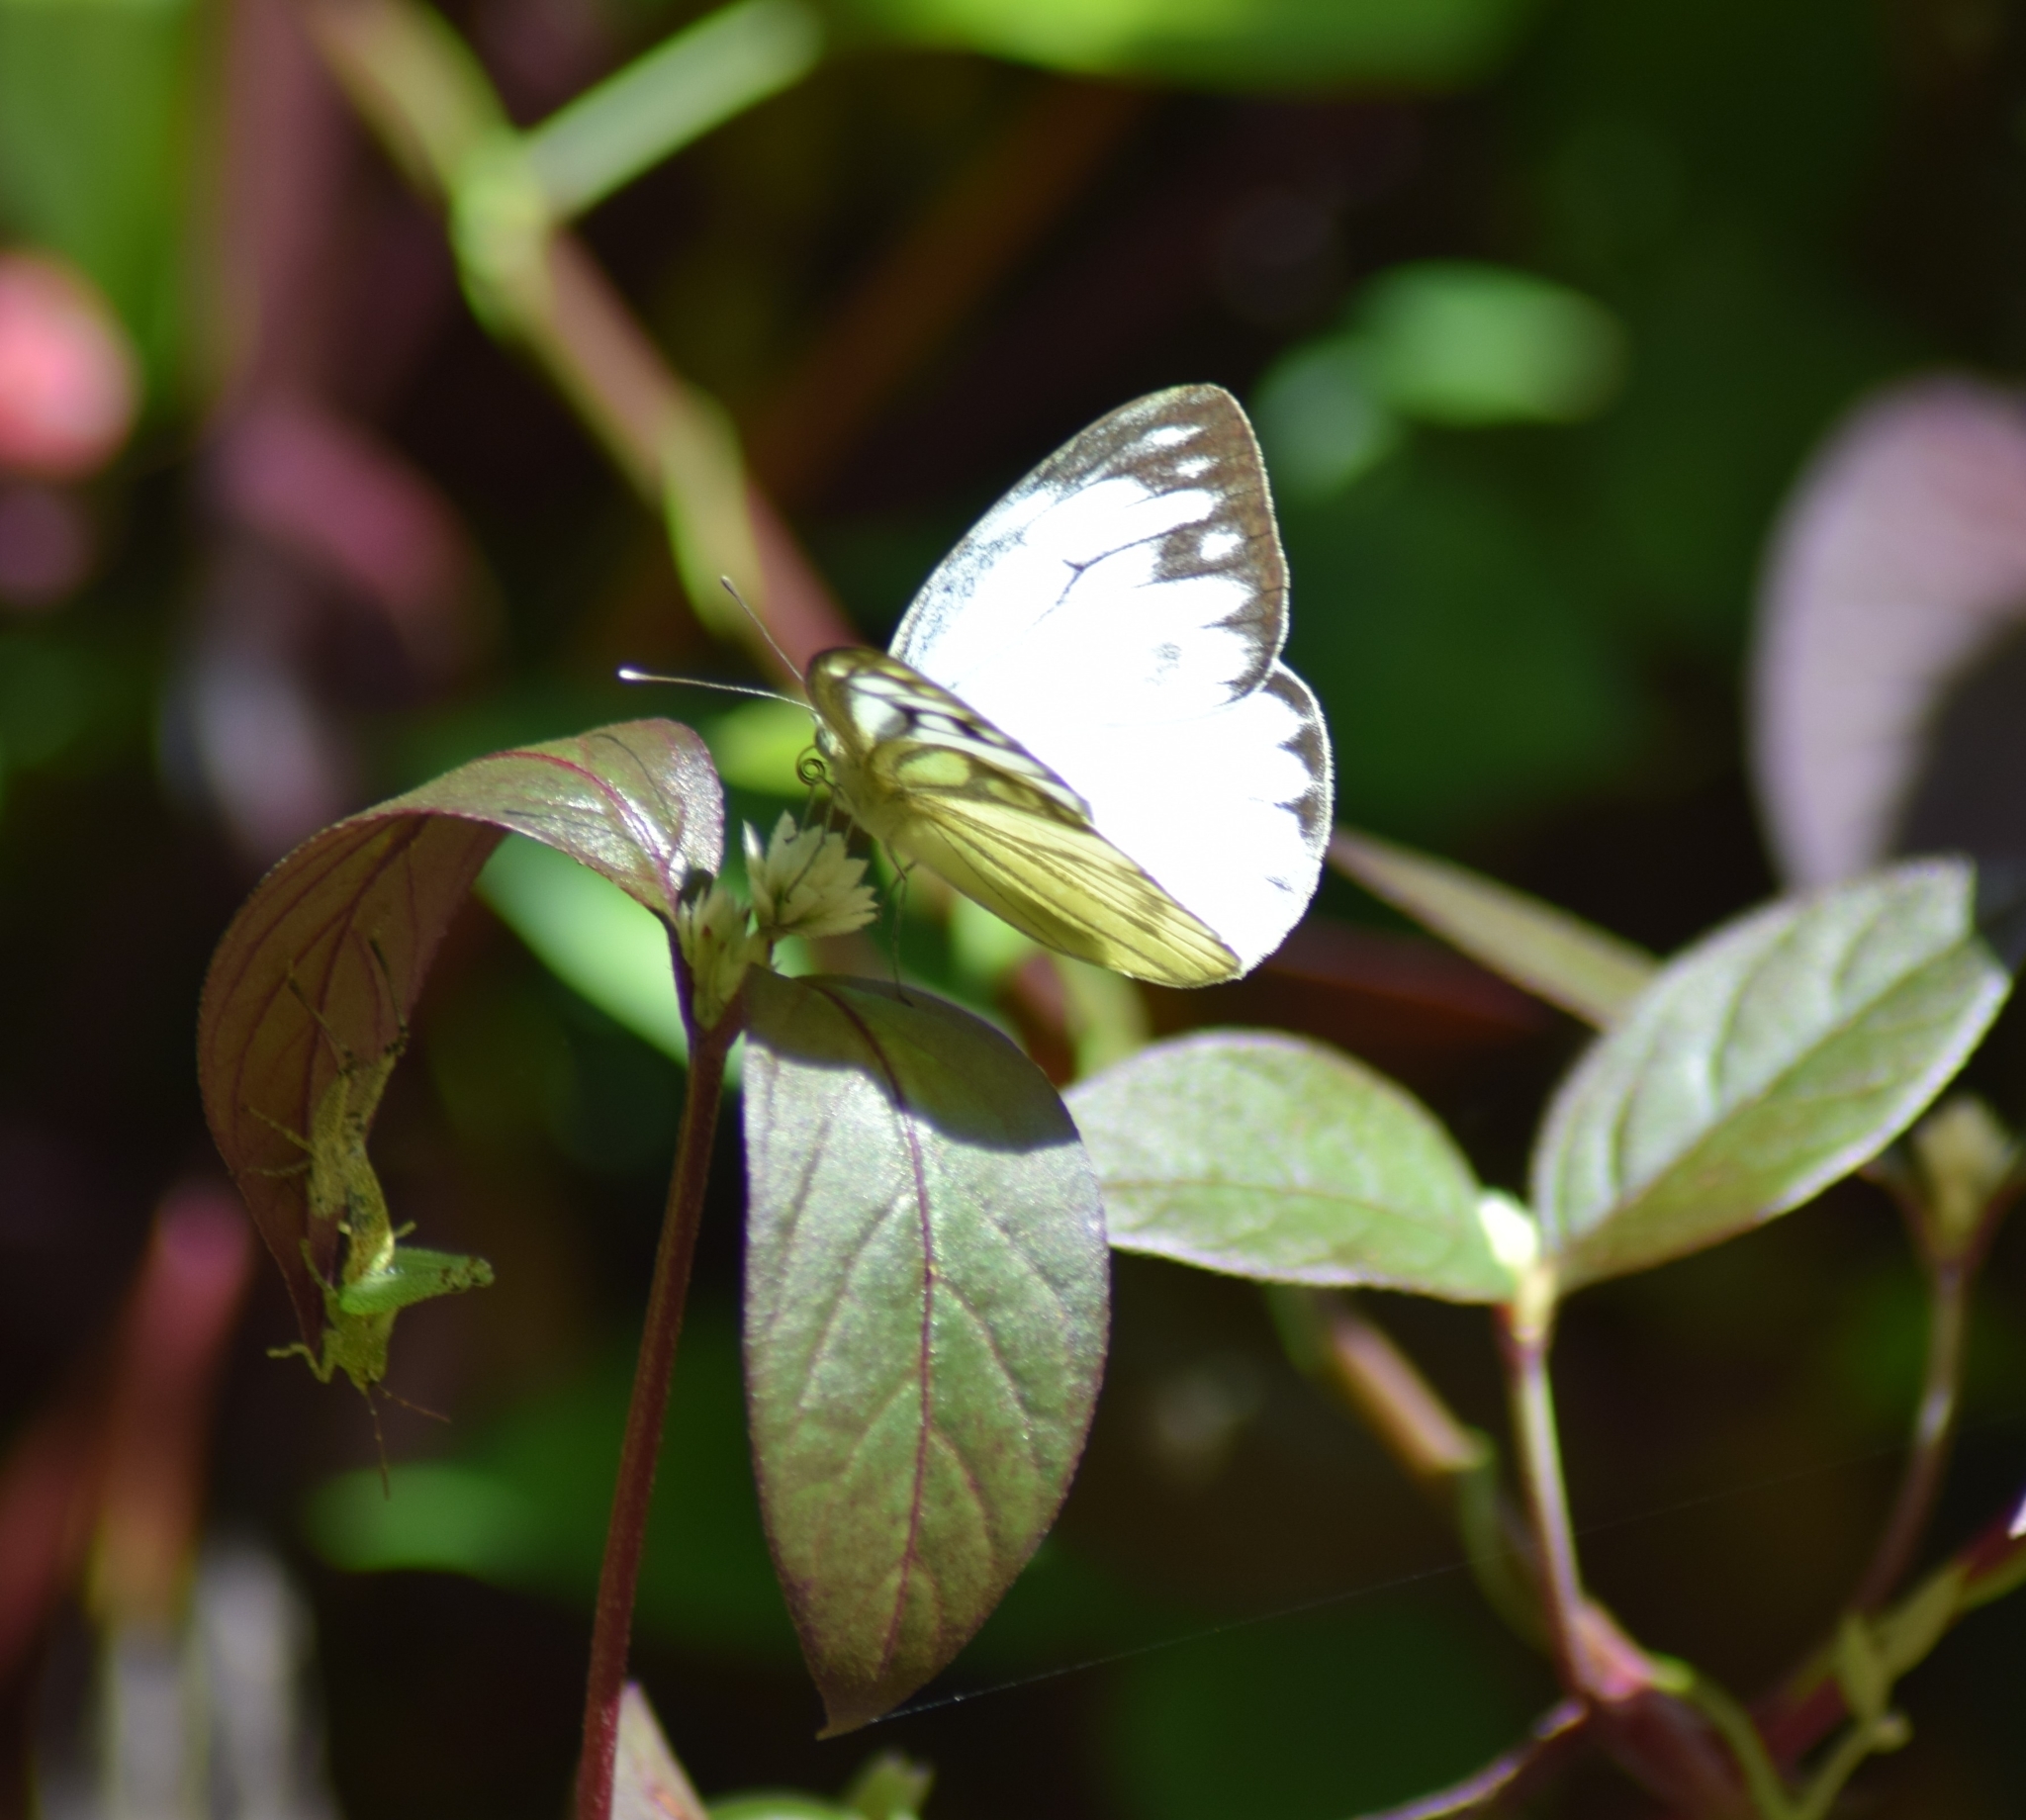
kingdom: Animalia
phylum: Arthropoda
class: Insecta
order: Lepidoptera
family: Pieridae
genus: Cepora
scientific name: Cepora nerissa
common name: Common gull
